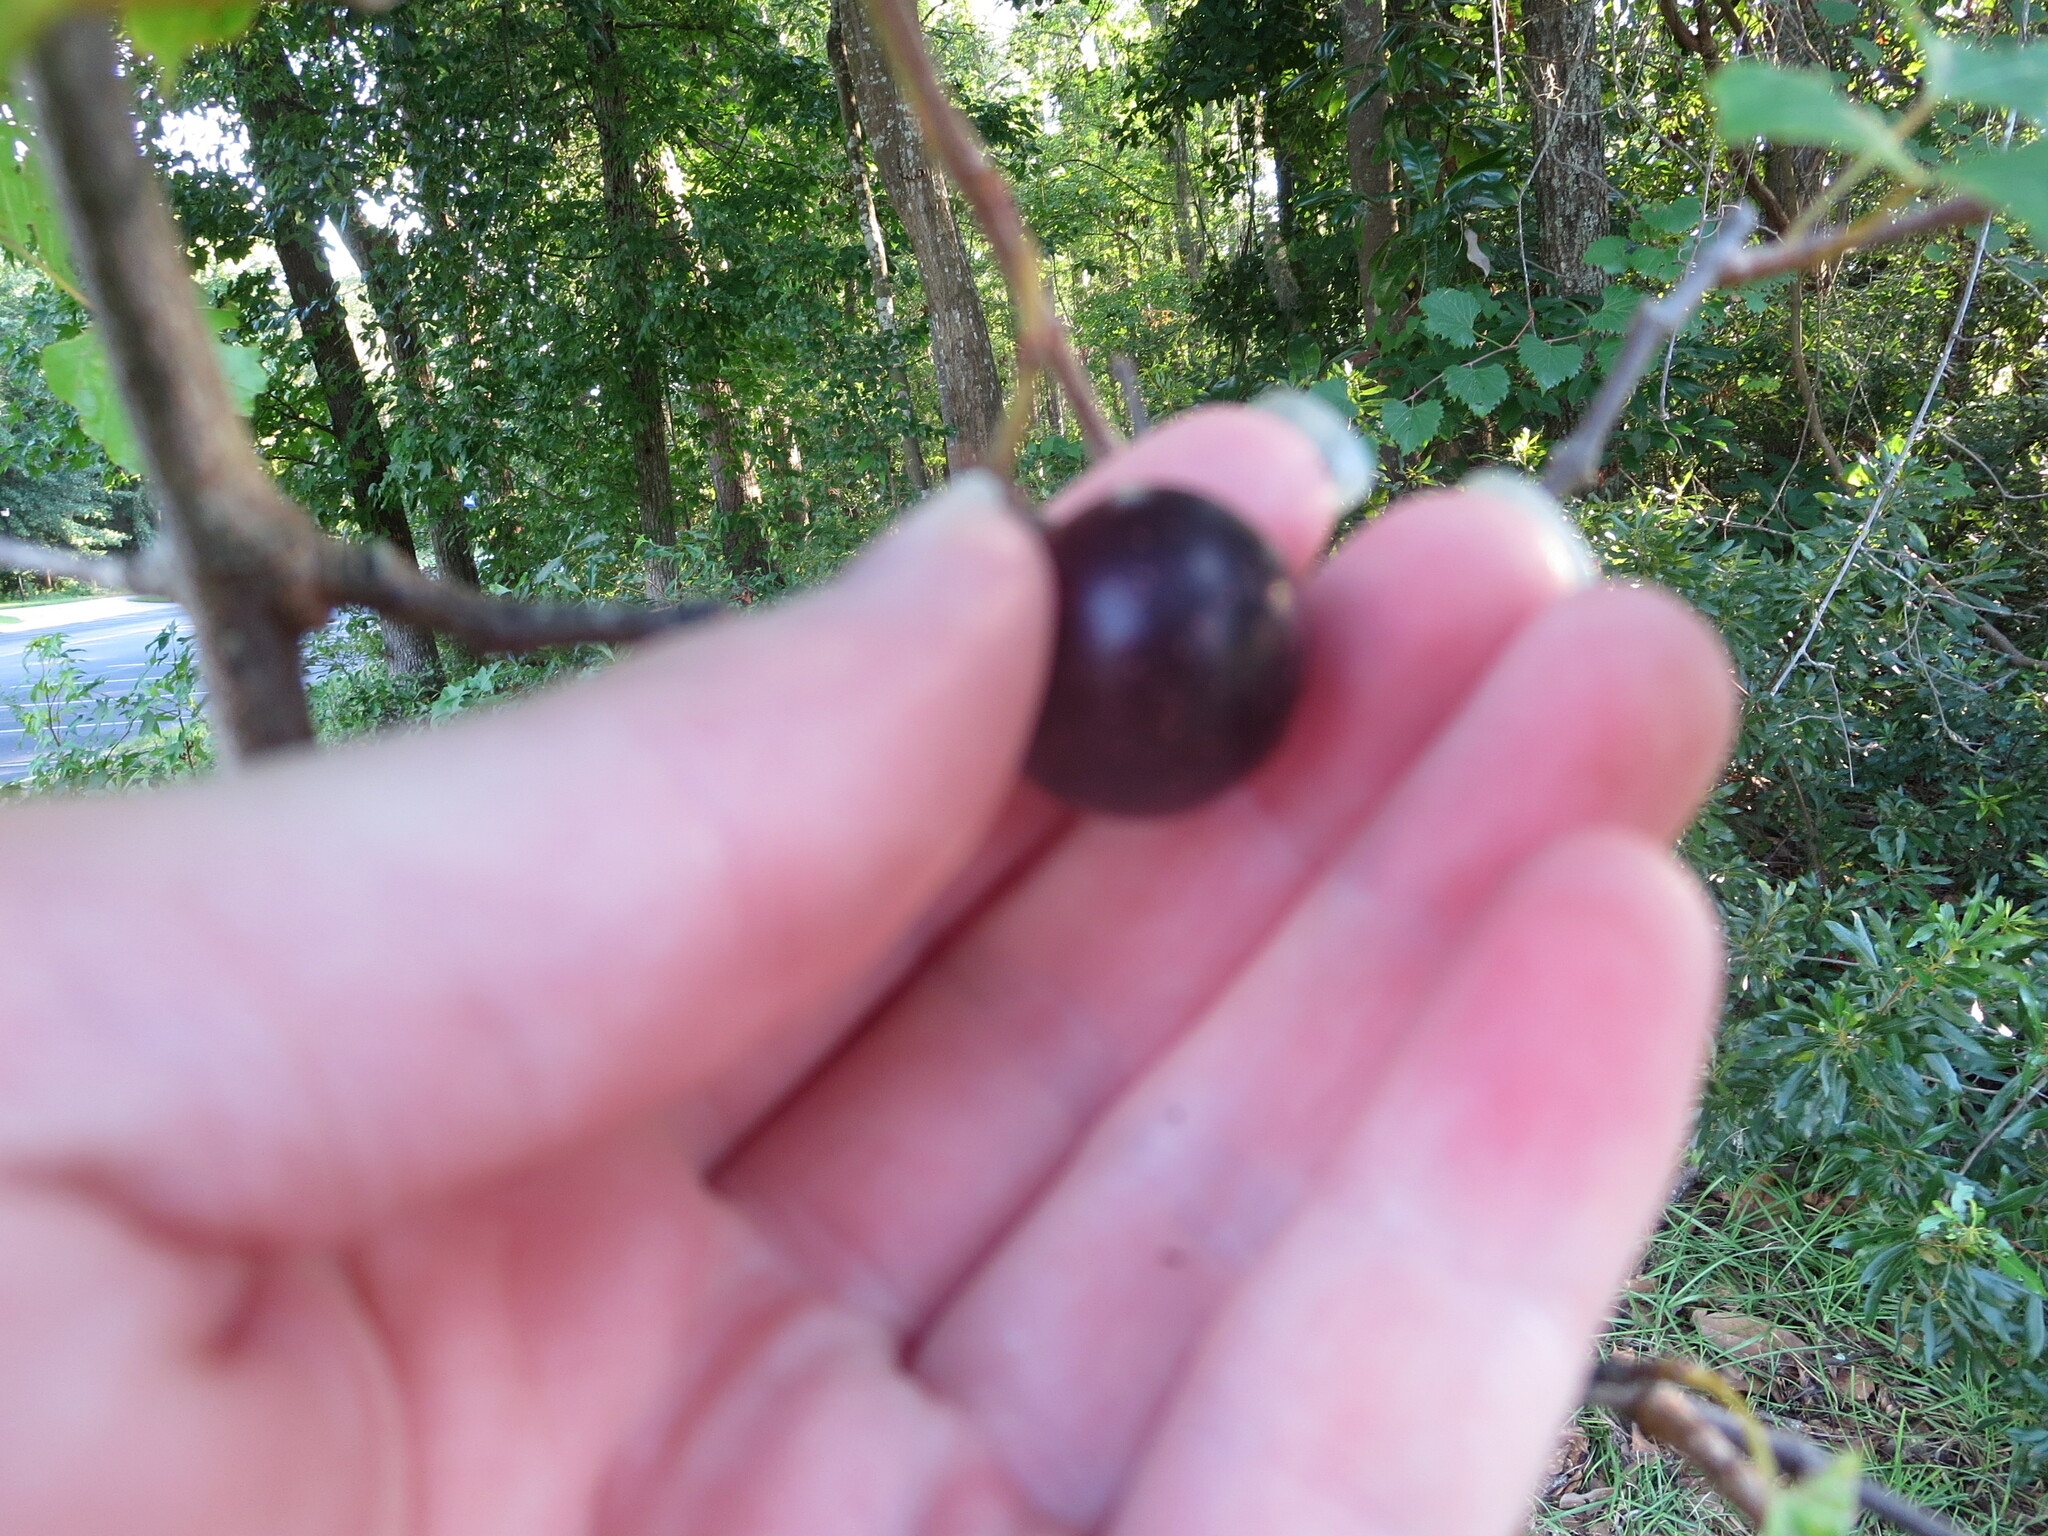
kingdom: Plantae
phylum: Tracheophyta
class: Magnoliopsida
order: Vitales
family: Vitaceae
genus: Vitis
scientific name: Vitis rotundifolia
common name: Muscadine grape
